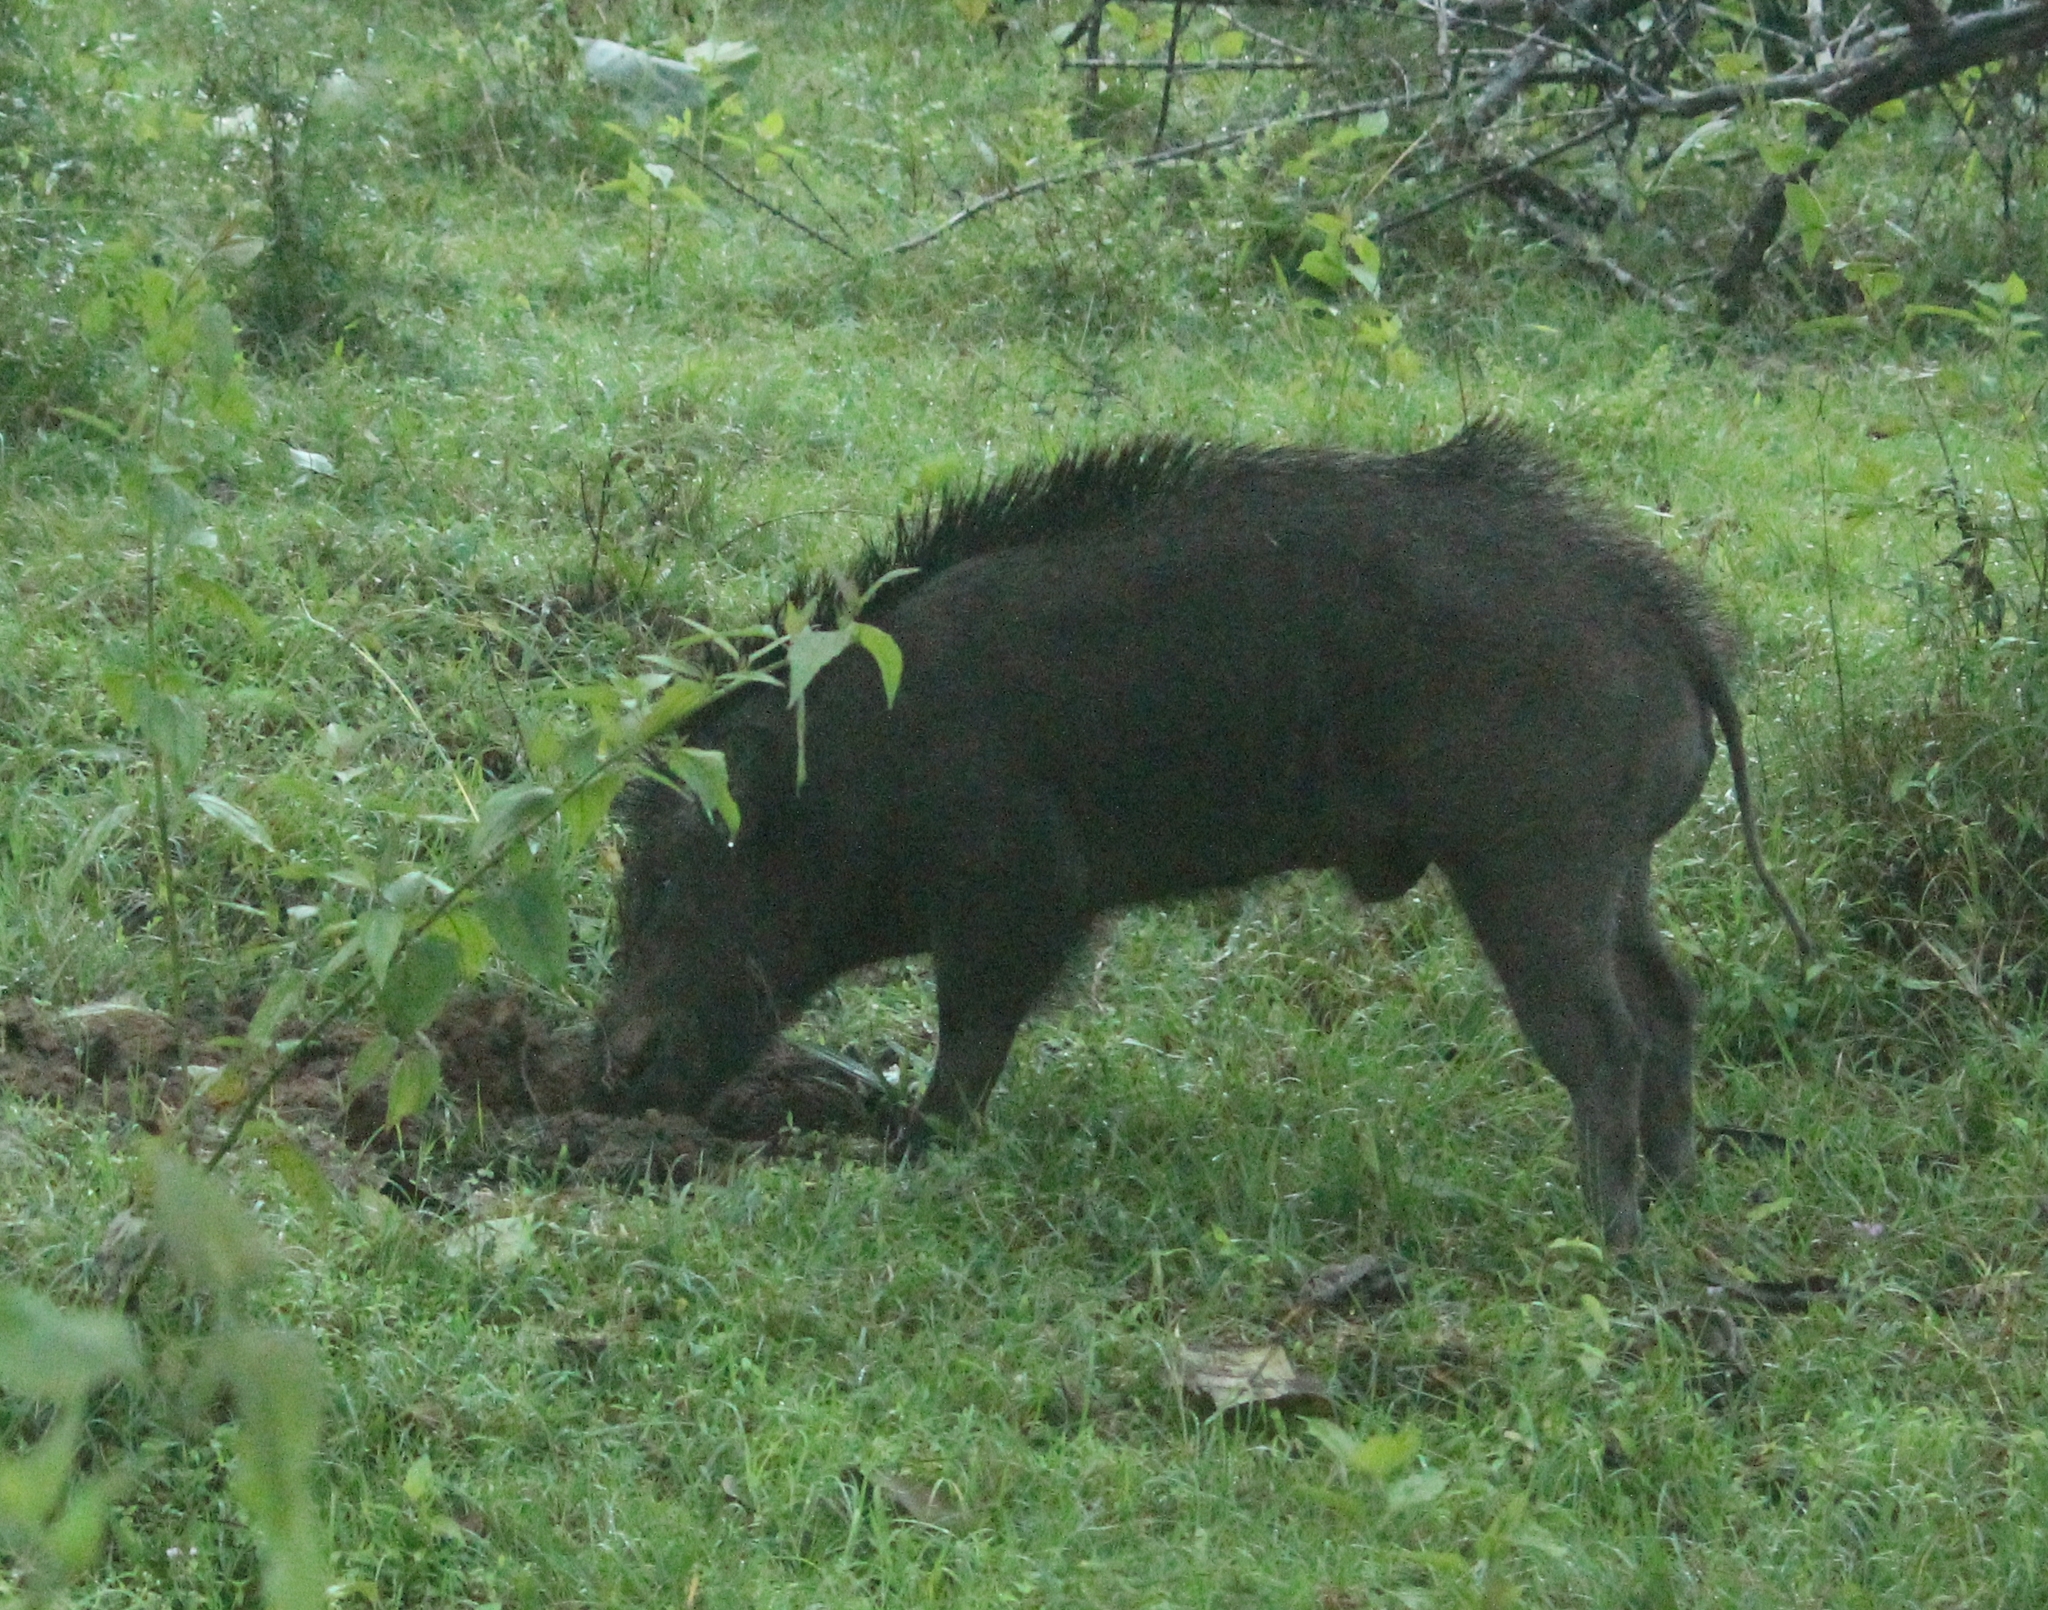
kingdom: Animalia
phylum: Chordata
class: Mammalia
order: Artiodactyla
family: Suidae
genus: Sus
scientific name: Sus scrofa
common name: Wild boar
